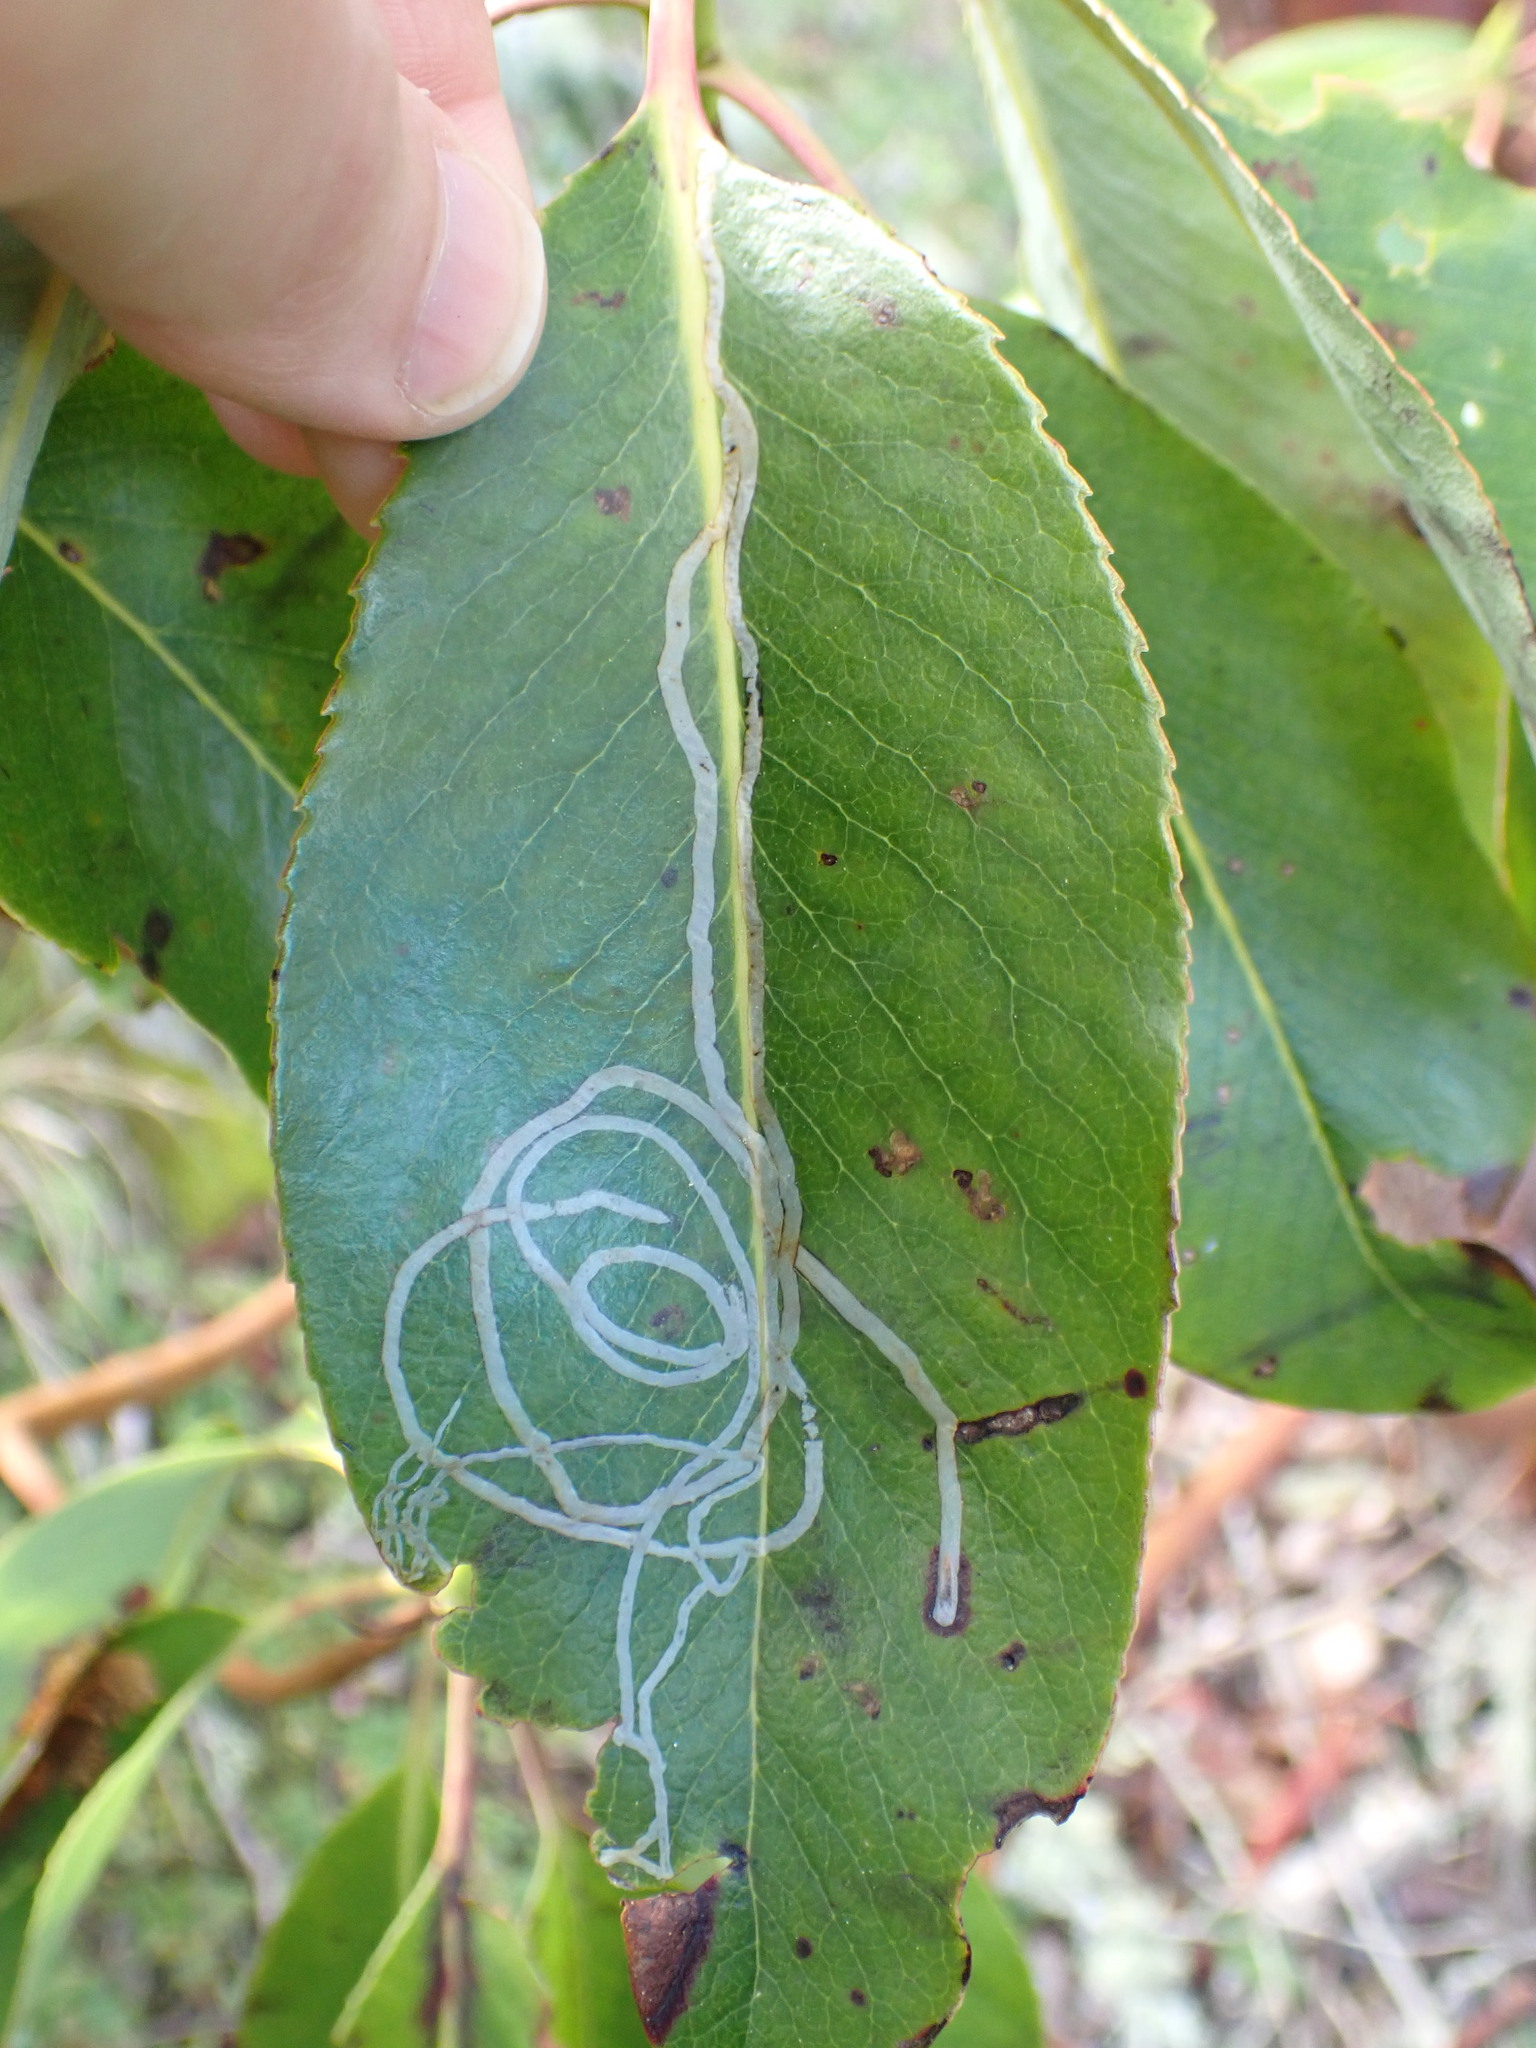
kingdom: Animalia
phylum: Arthropoda
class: Insecta
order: Lepidoptera
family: Gracillariidae
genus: Marmara
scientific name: Marmara arbutiella
